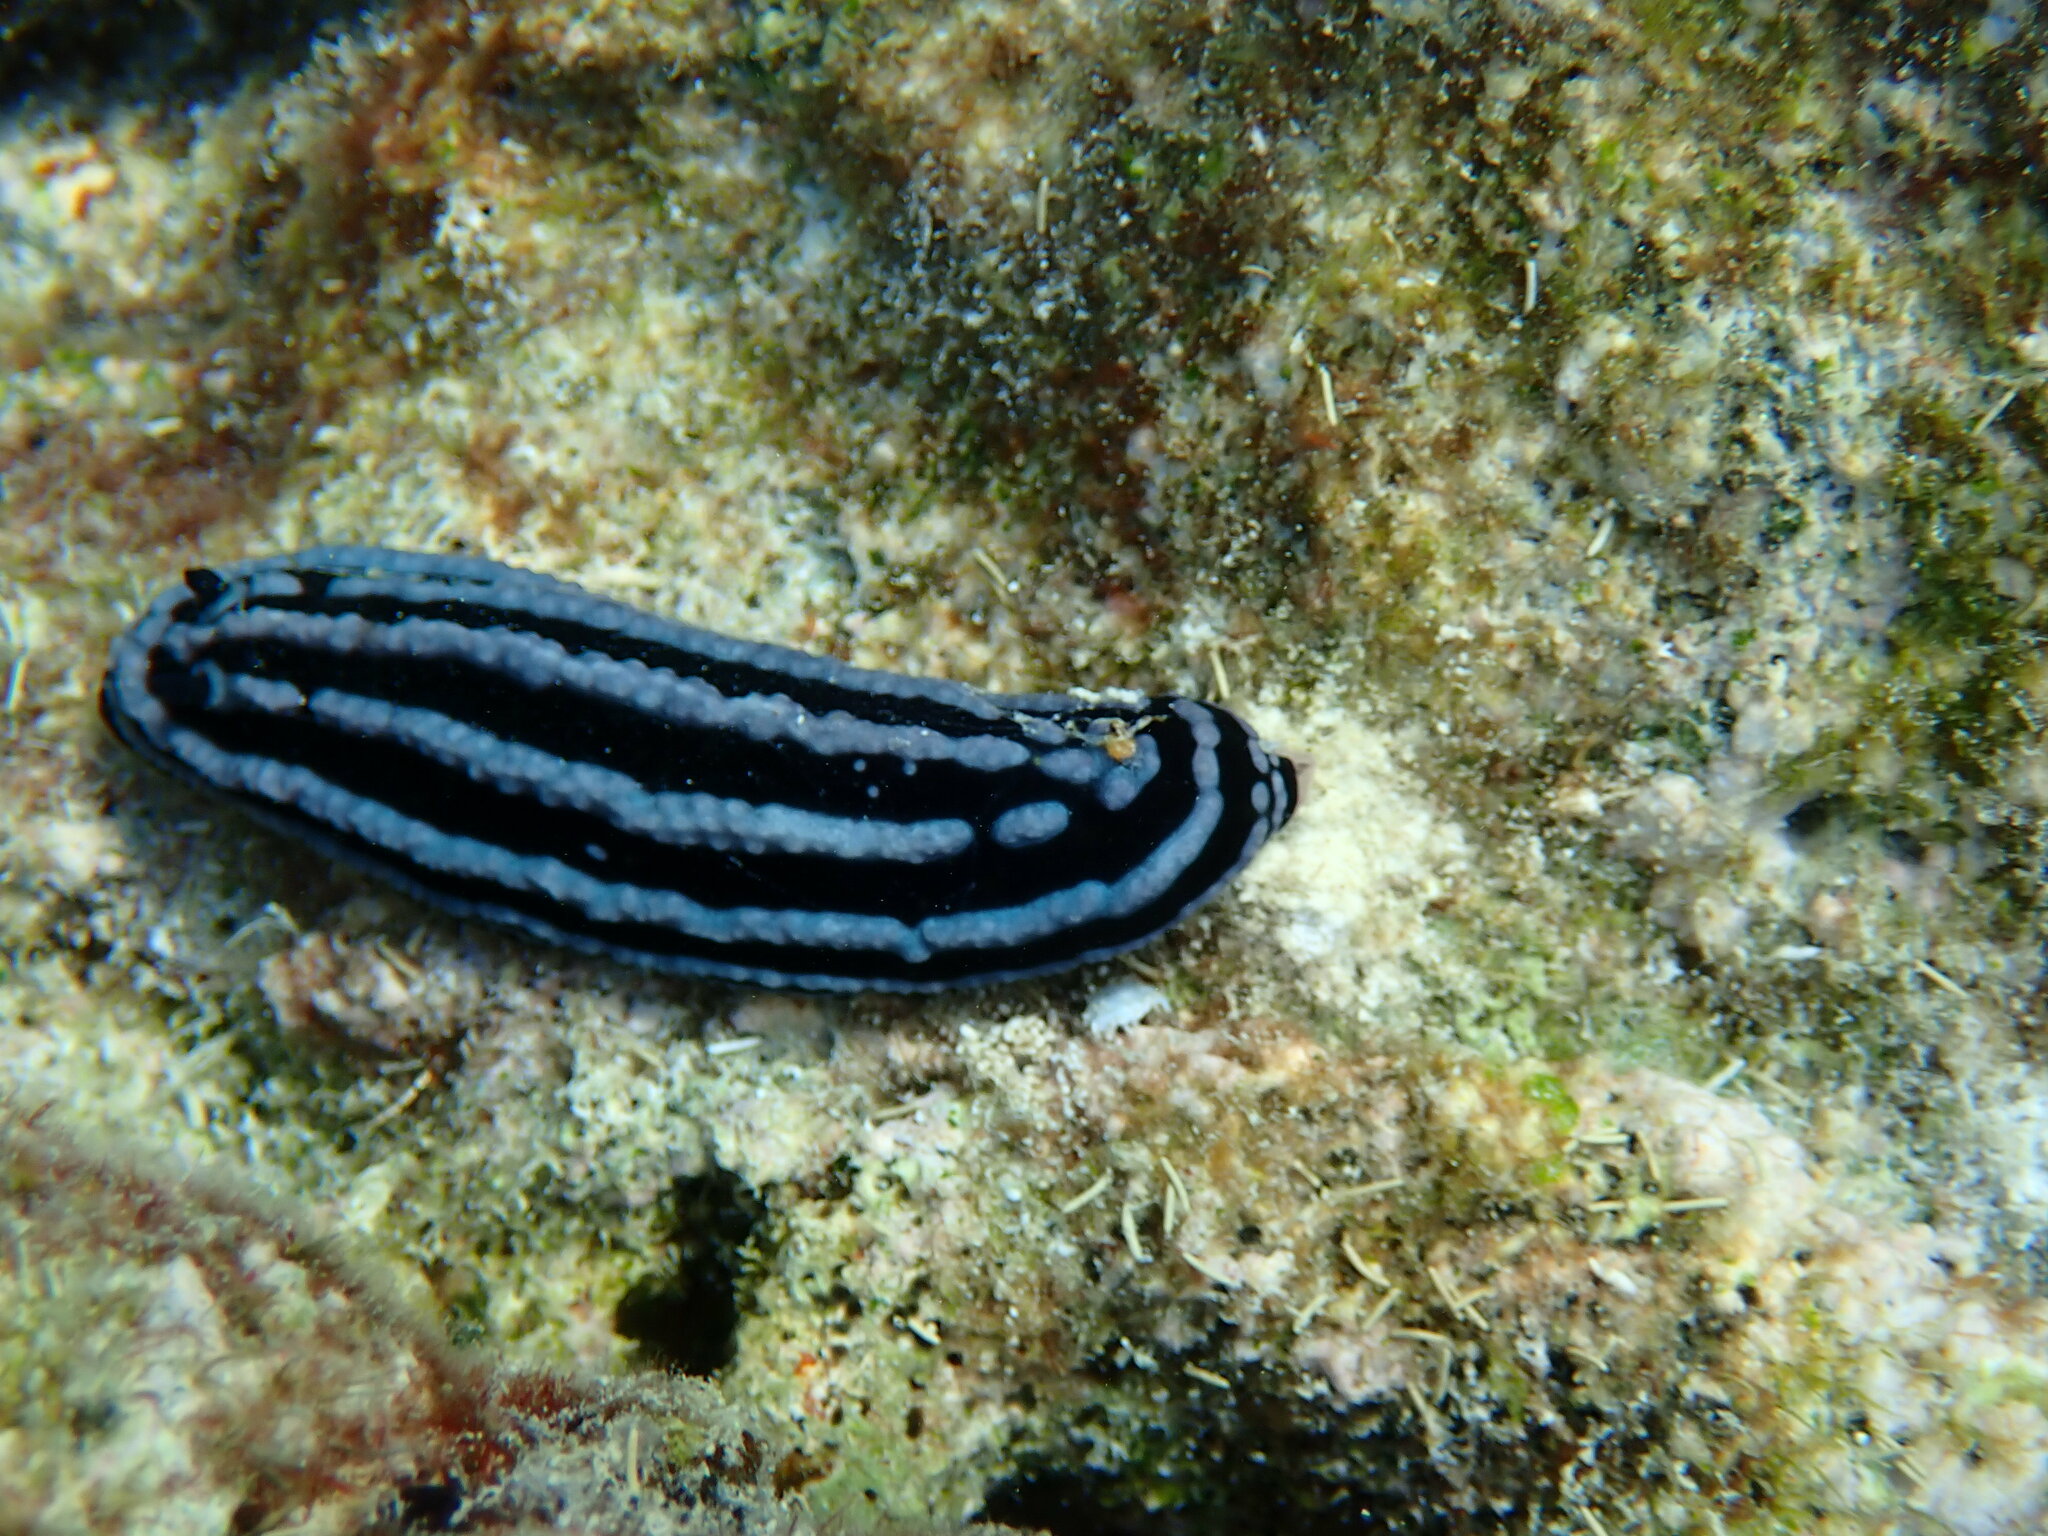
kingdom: Animalia
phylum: Mollusca
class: Gastropoda
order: Nudibranchia
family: Phyllidiidae
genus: Phyllidiella
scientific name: Phyllidiella rosans
